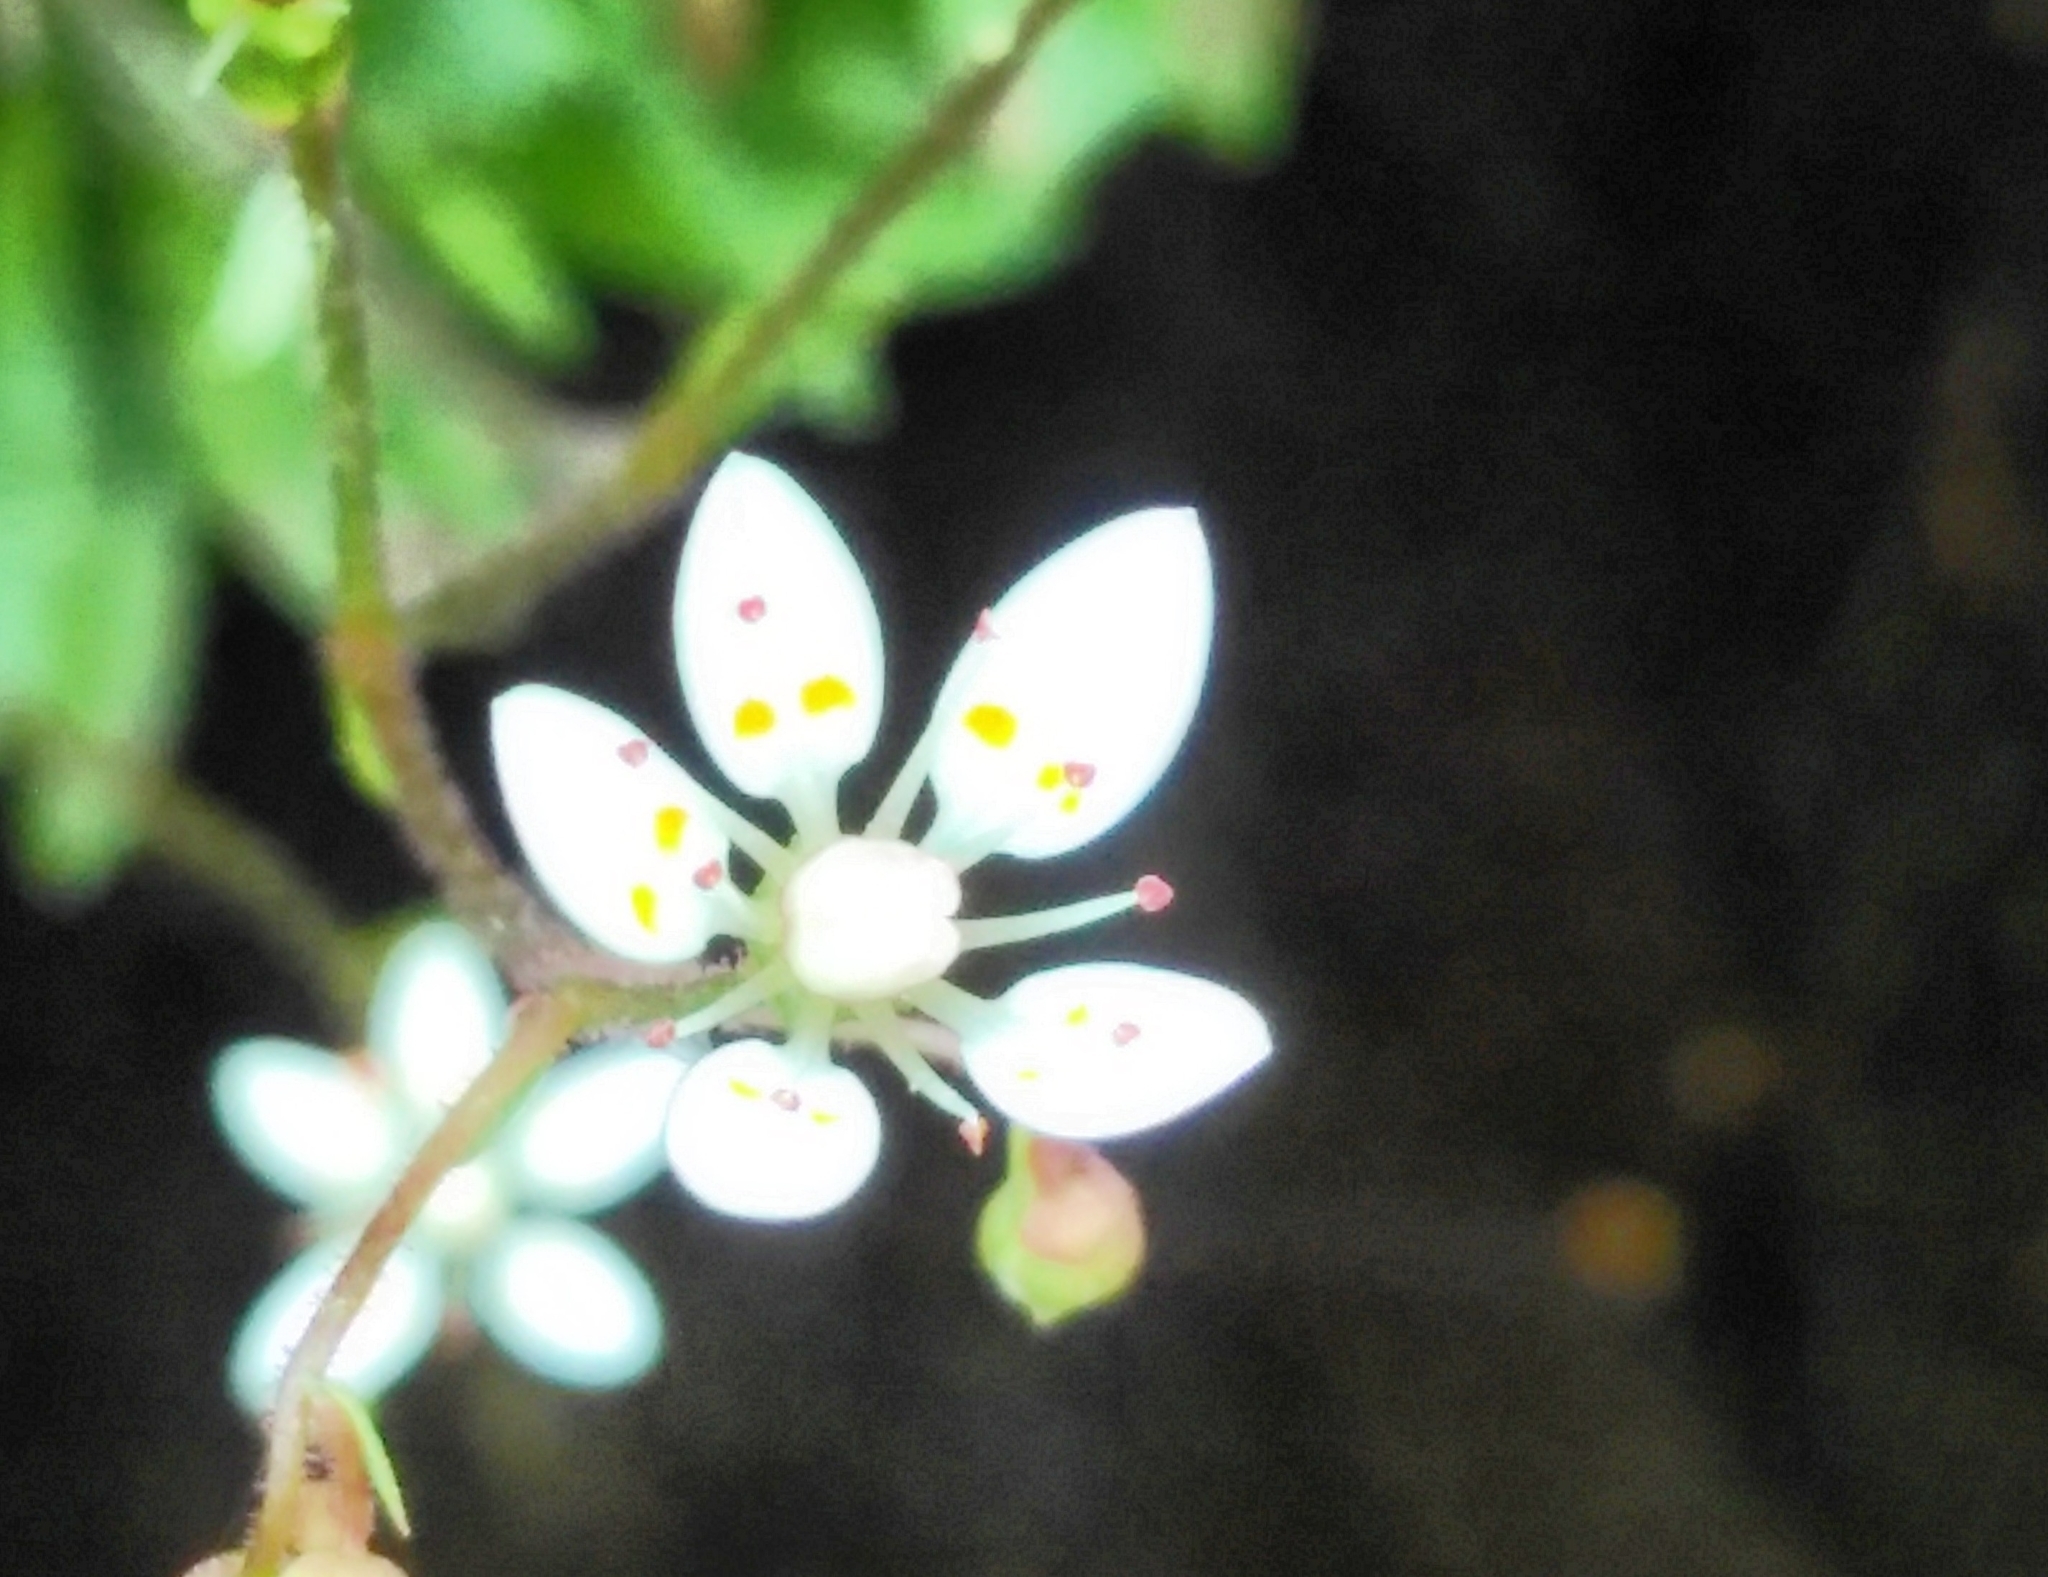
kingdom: Plantae
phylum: Tracheophyta
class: Magnoliopsida
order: Saxifragales
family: Saxifragaceae
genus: Micranthes
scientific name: Micranthes stellaris
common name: Starry saxifrage
